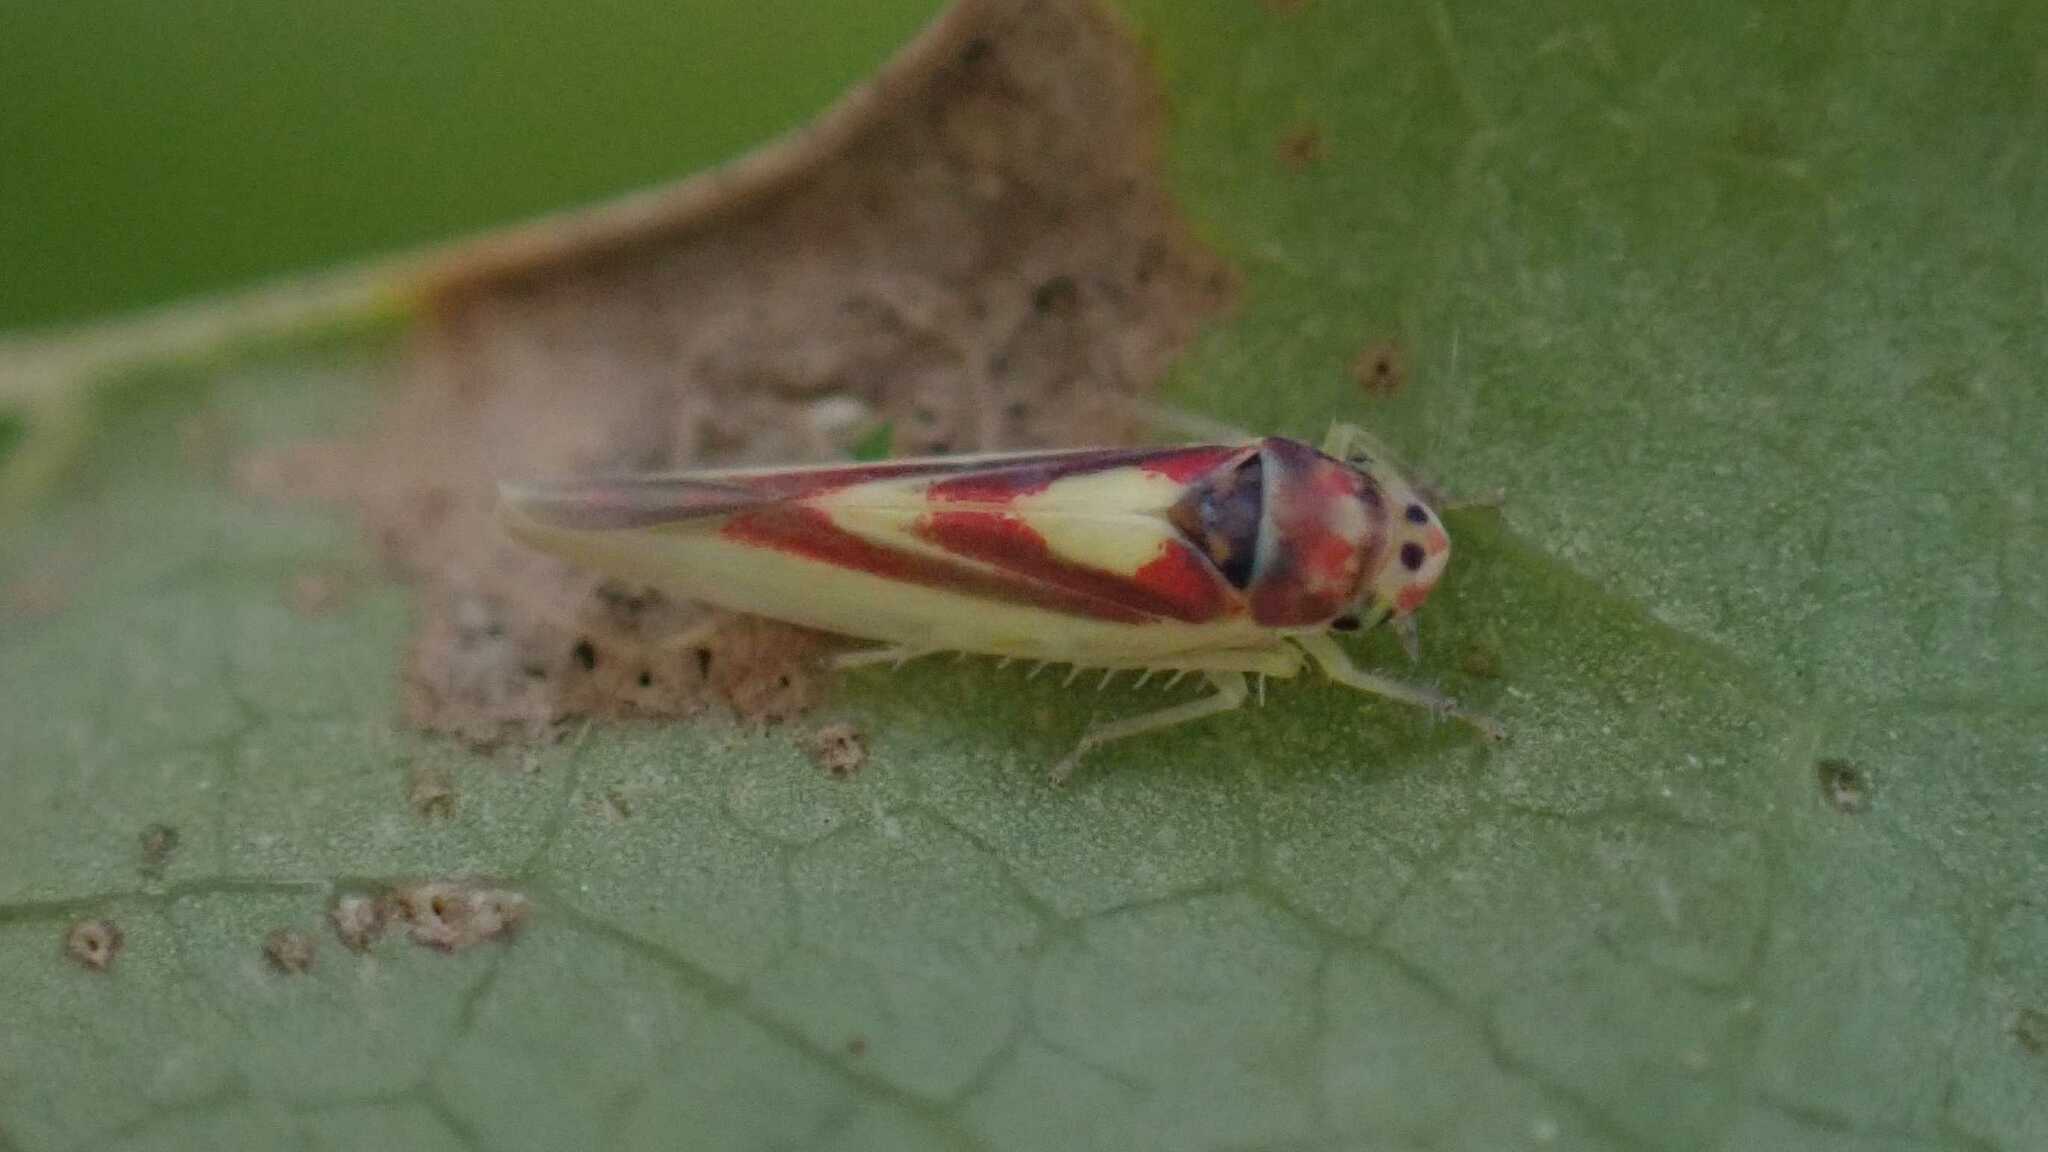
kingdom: Animalia
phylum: Arthropoda
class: Insecta
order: Hemiptera
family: Cicadellidae
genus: Zygina
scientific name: Zygina lunaris
